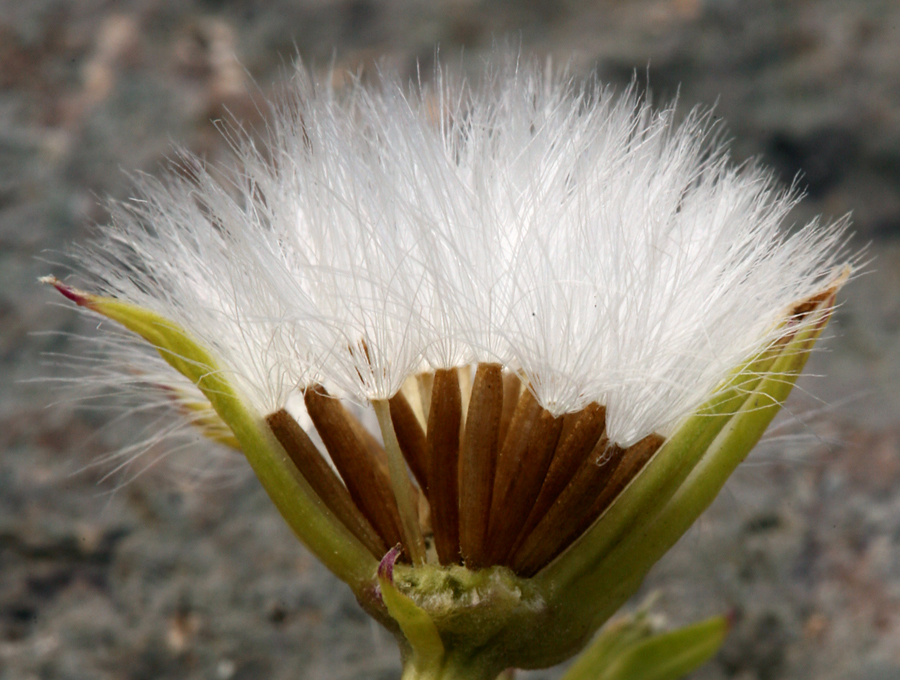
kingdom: Plantae
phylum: Tracheophyta
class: Magnoliopsida
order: Asterales
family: Asteraceae
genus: Senecio
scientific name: Senecio fremontii
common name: Fremont's groundsel
